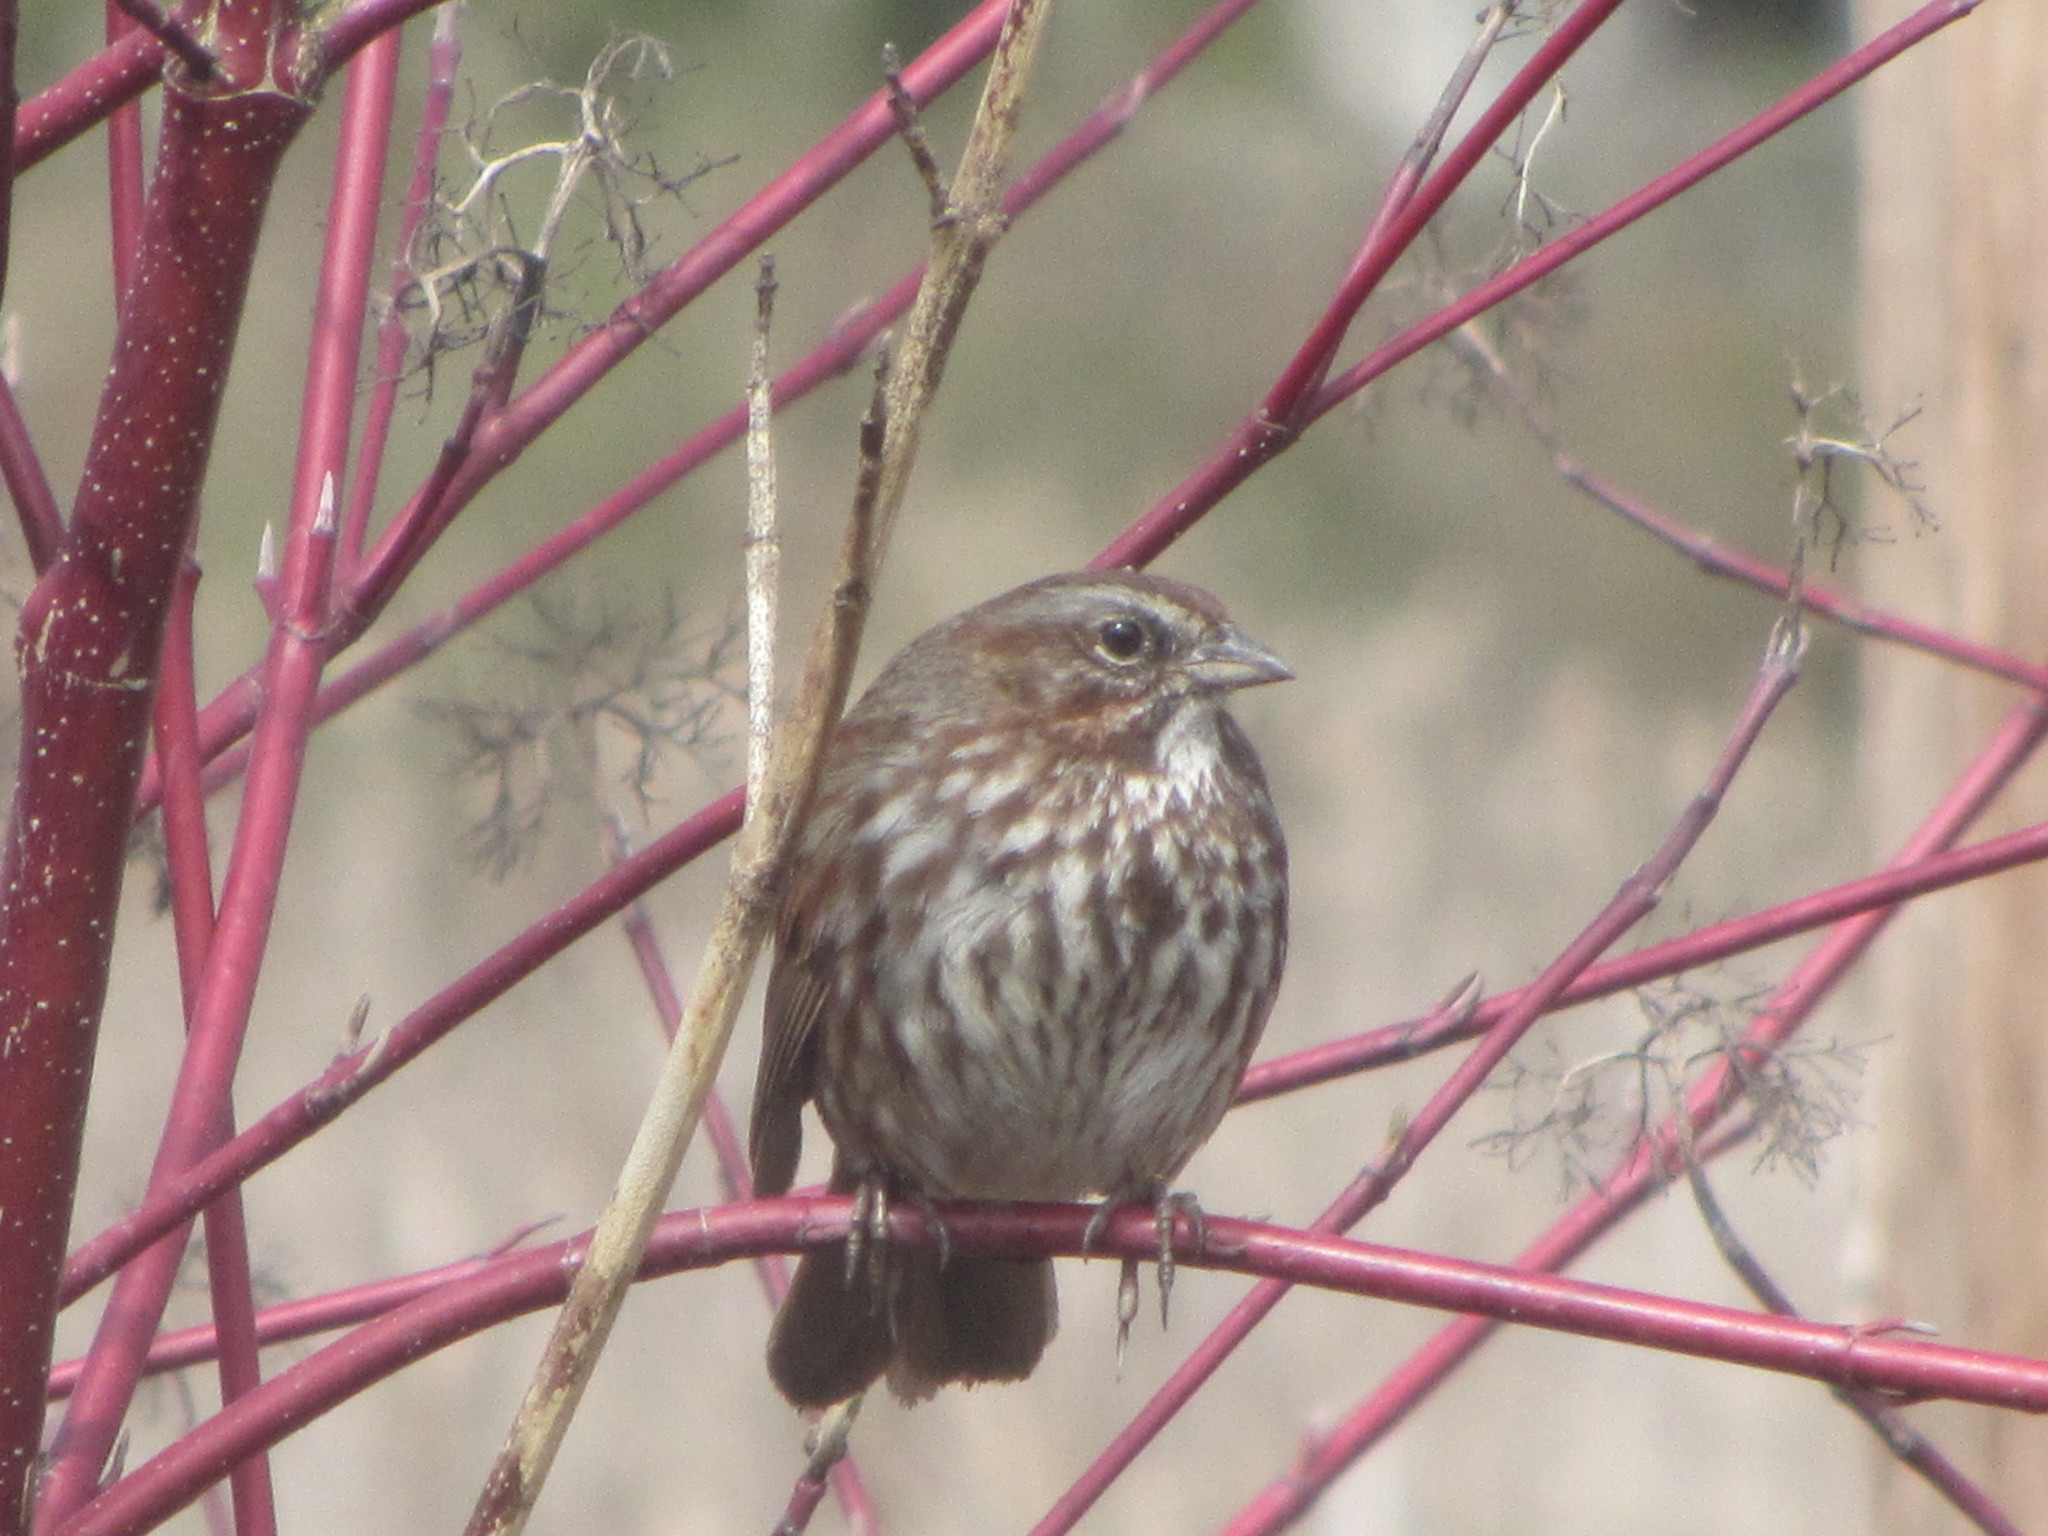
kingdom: Animalia
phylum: Chordata
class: Aves
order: Passeriformes
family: Passerellidae
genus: Melospiza
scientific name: Melospiza melodia
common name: Song sparrow
